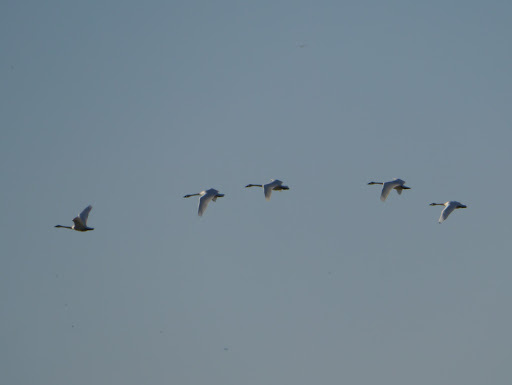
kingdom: Animalia
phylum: Chordata
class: Aves
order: Anseriformes
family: Anatidae
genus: Cygnus
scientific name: Cygnus columbianus
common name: Tundra swan
